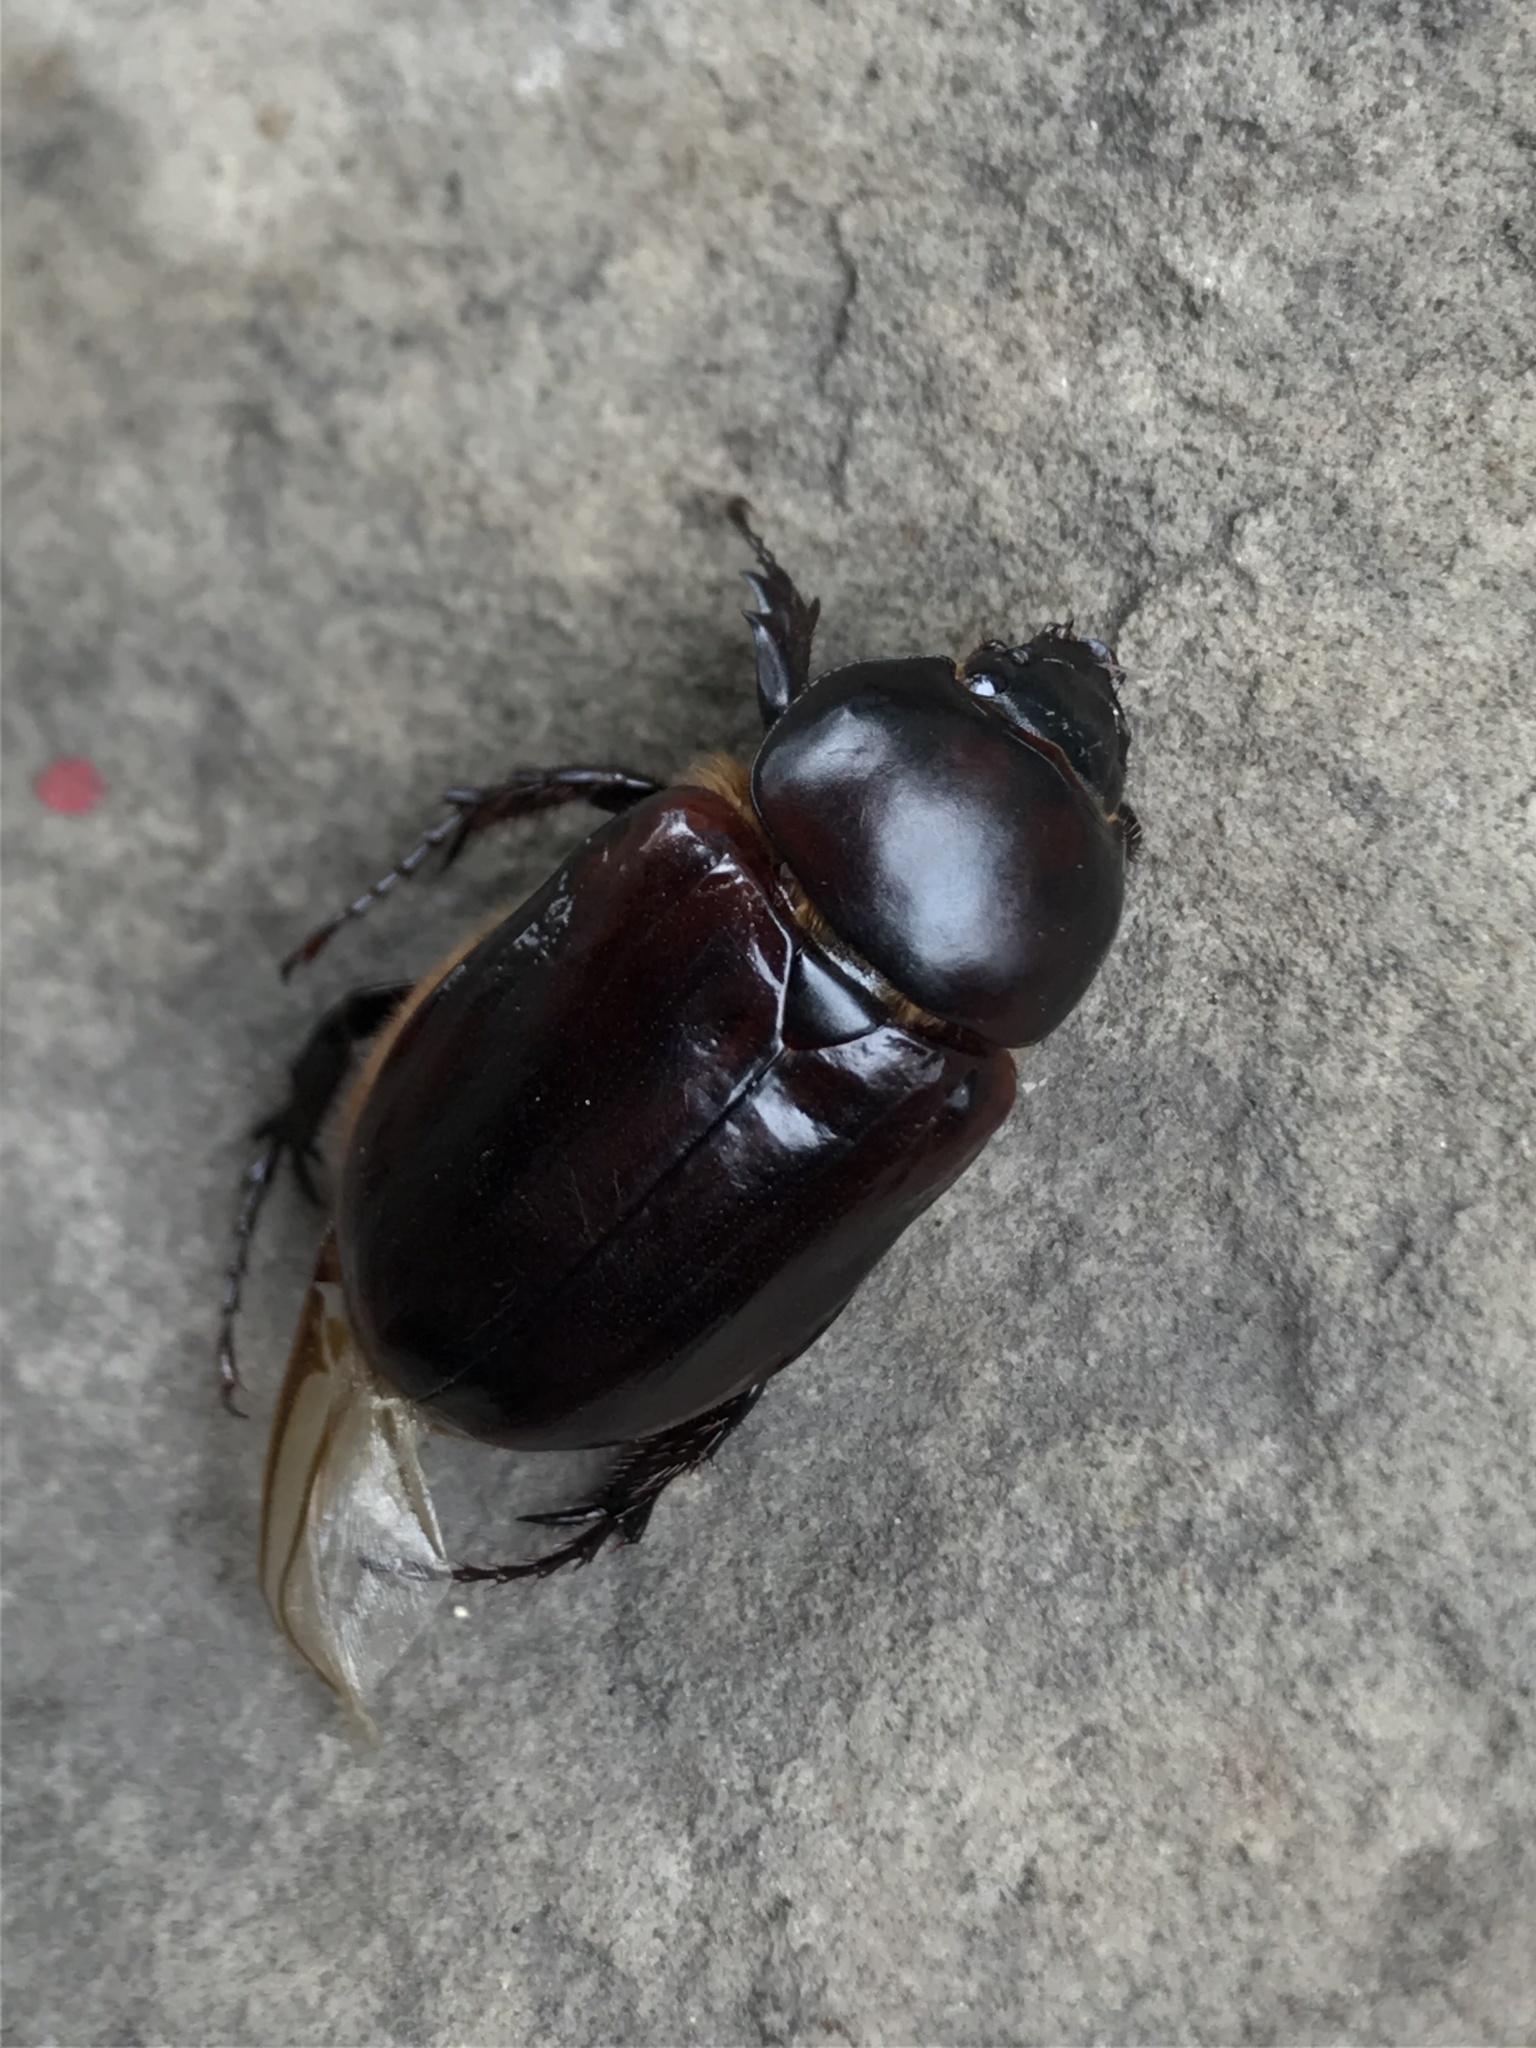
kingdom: Animalia
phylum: Arthropoda
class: Insecta
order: Coleoptera
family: Scarabaeidae
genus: Ancognatha
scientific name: Ancognatha scarabaeoides
